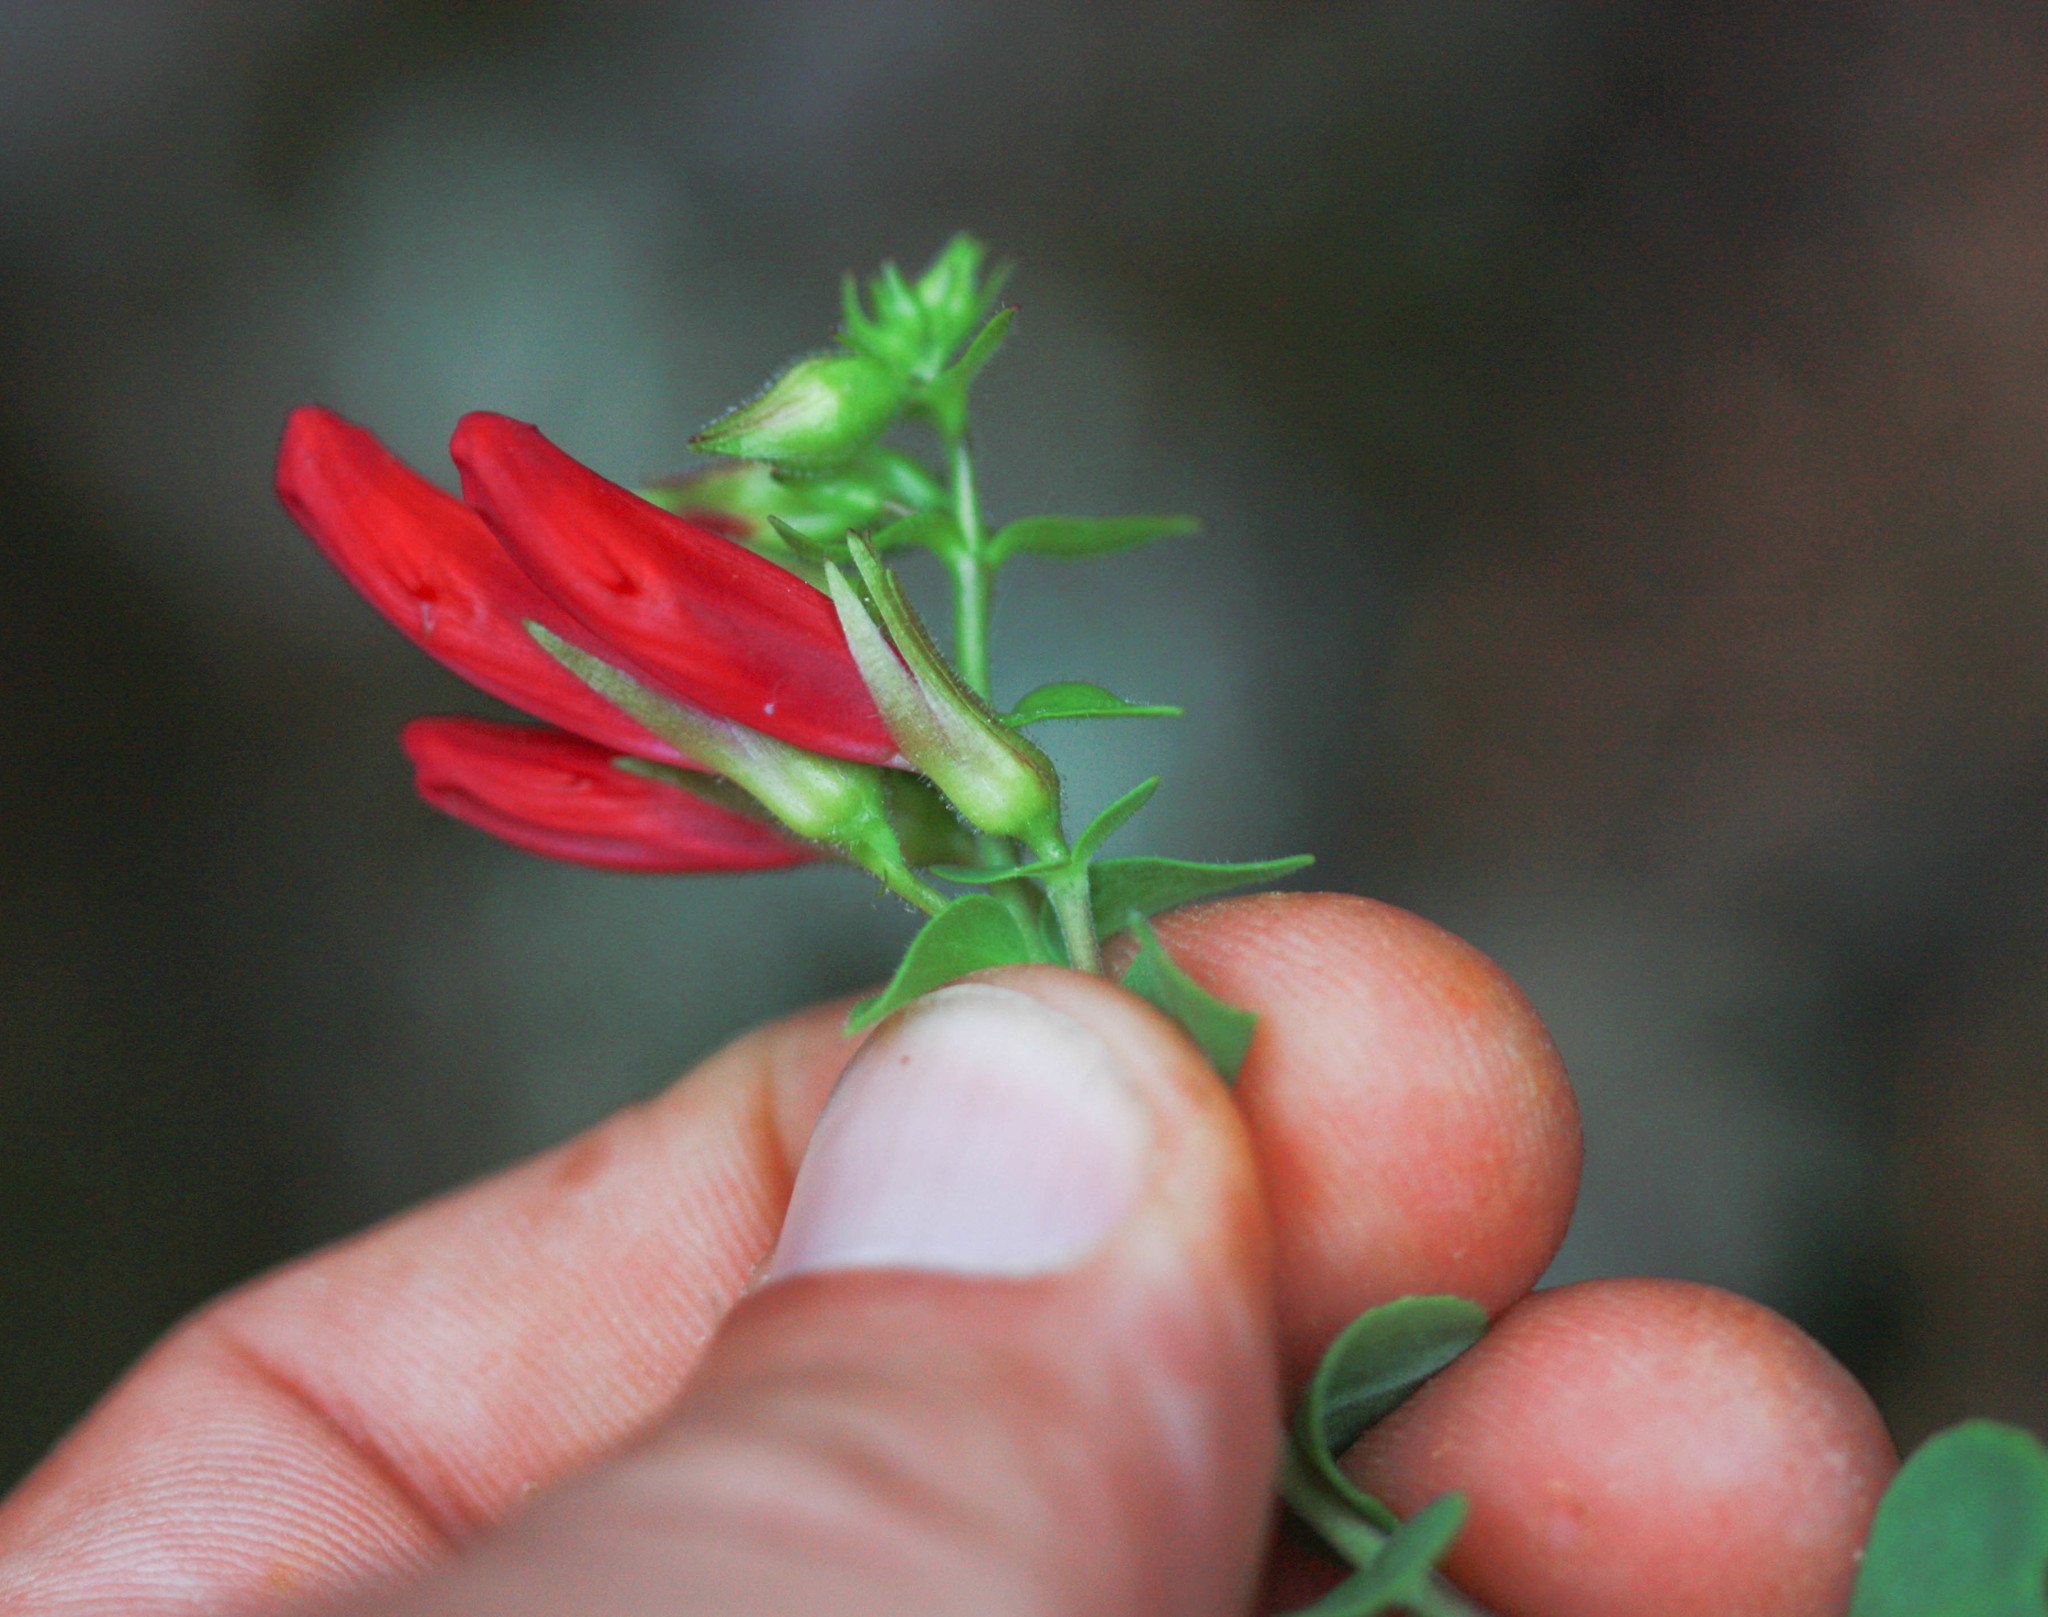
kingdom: Plantae
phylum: Tracheophyta
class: Magnoliopsida
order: Lamiales
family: Plantaginaceae
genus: Penstemon
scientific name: Penstemon newberryi
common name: Mountain-pride
